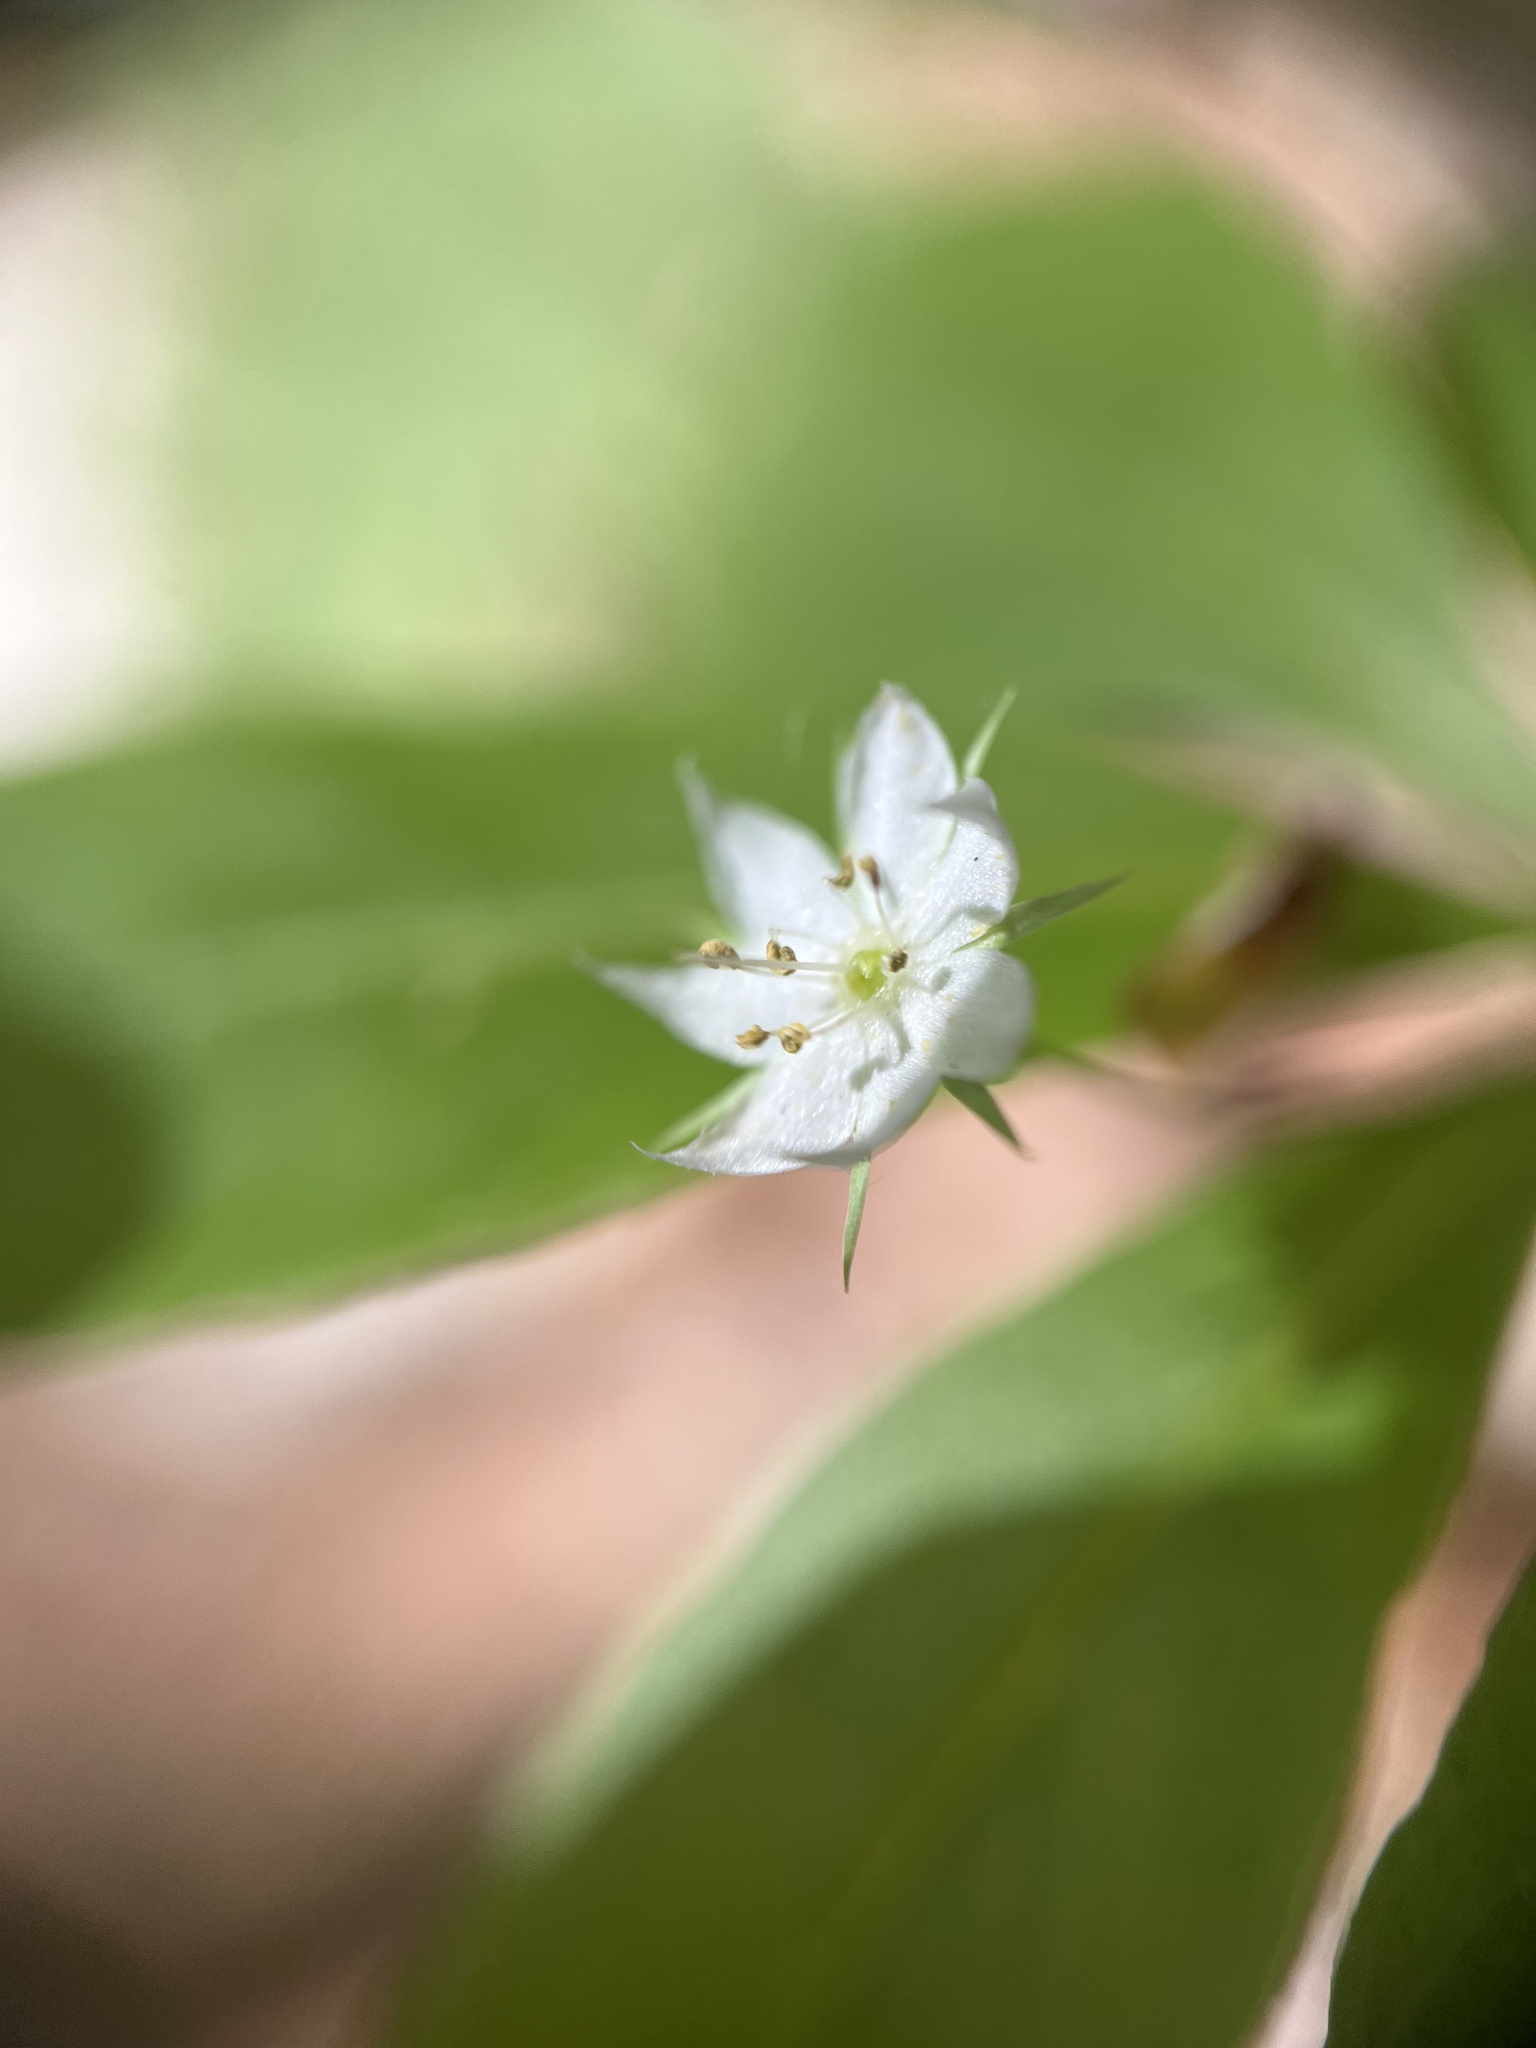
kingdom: Plantae
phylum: Tracheophyta
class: Magnoliopsida
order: Ericales
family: Primulaceae
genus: Lysimachia
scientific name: Lysimachia borealis
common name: American starflower
